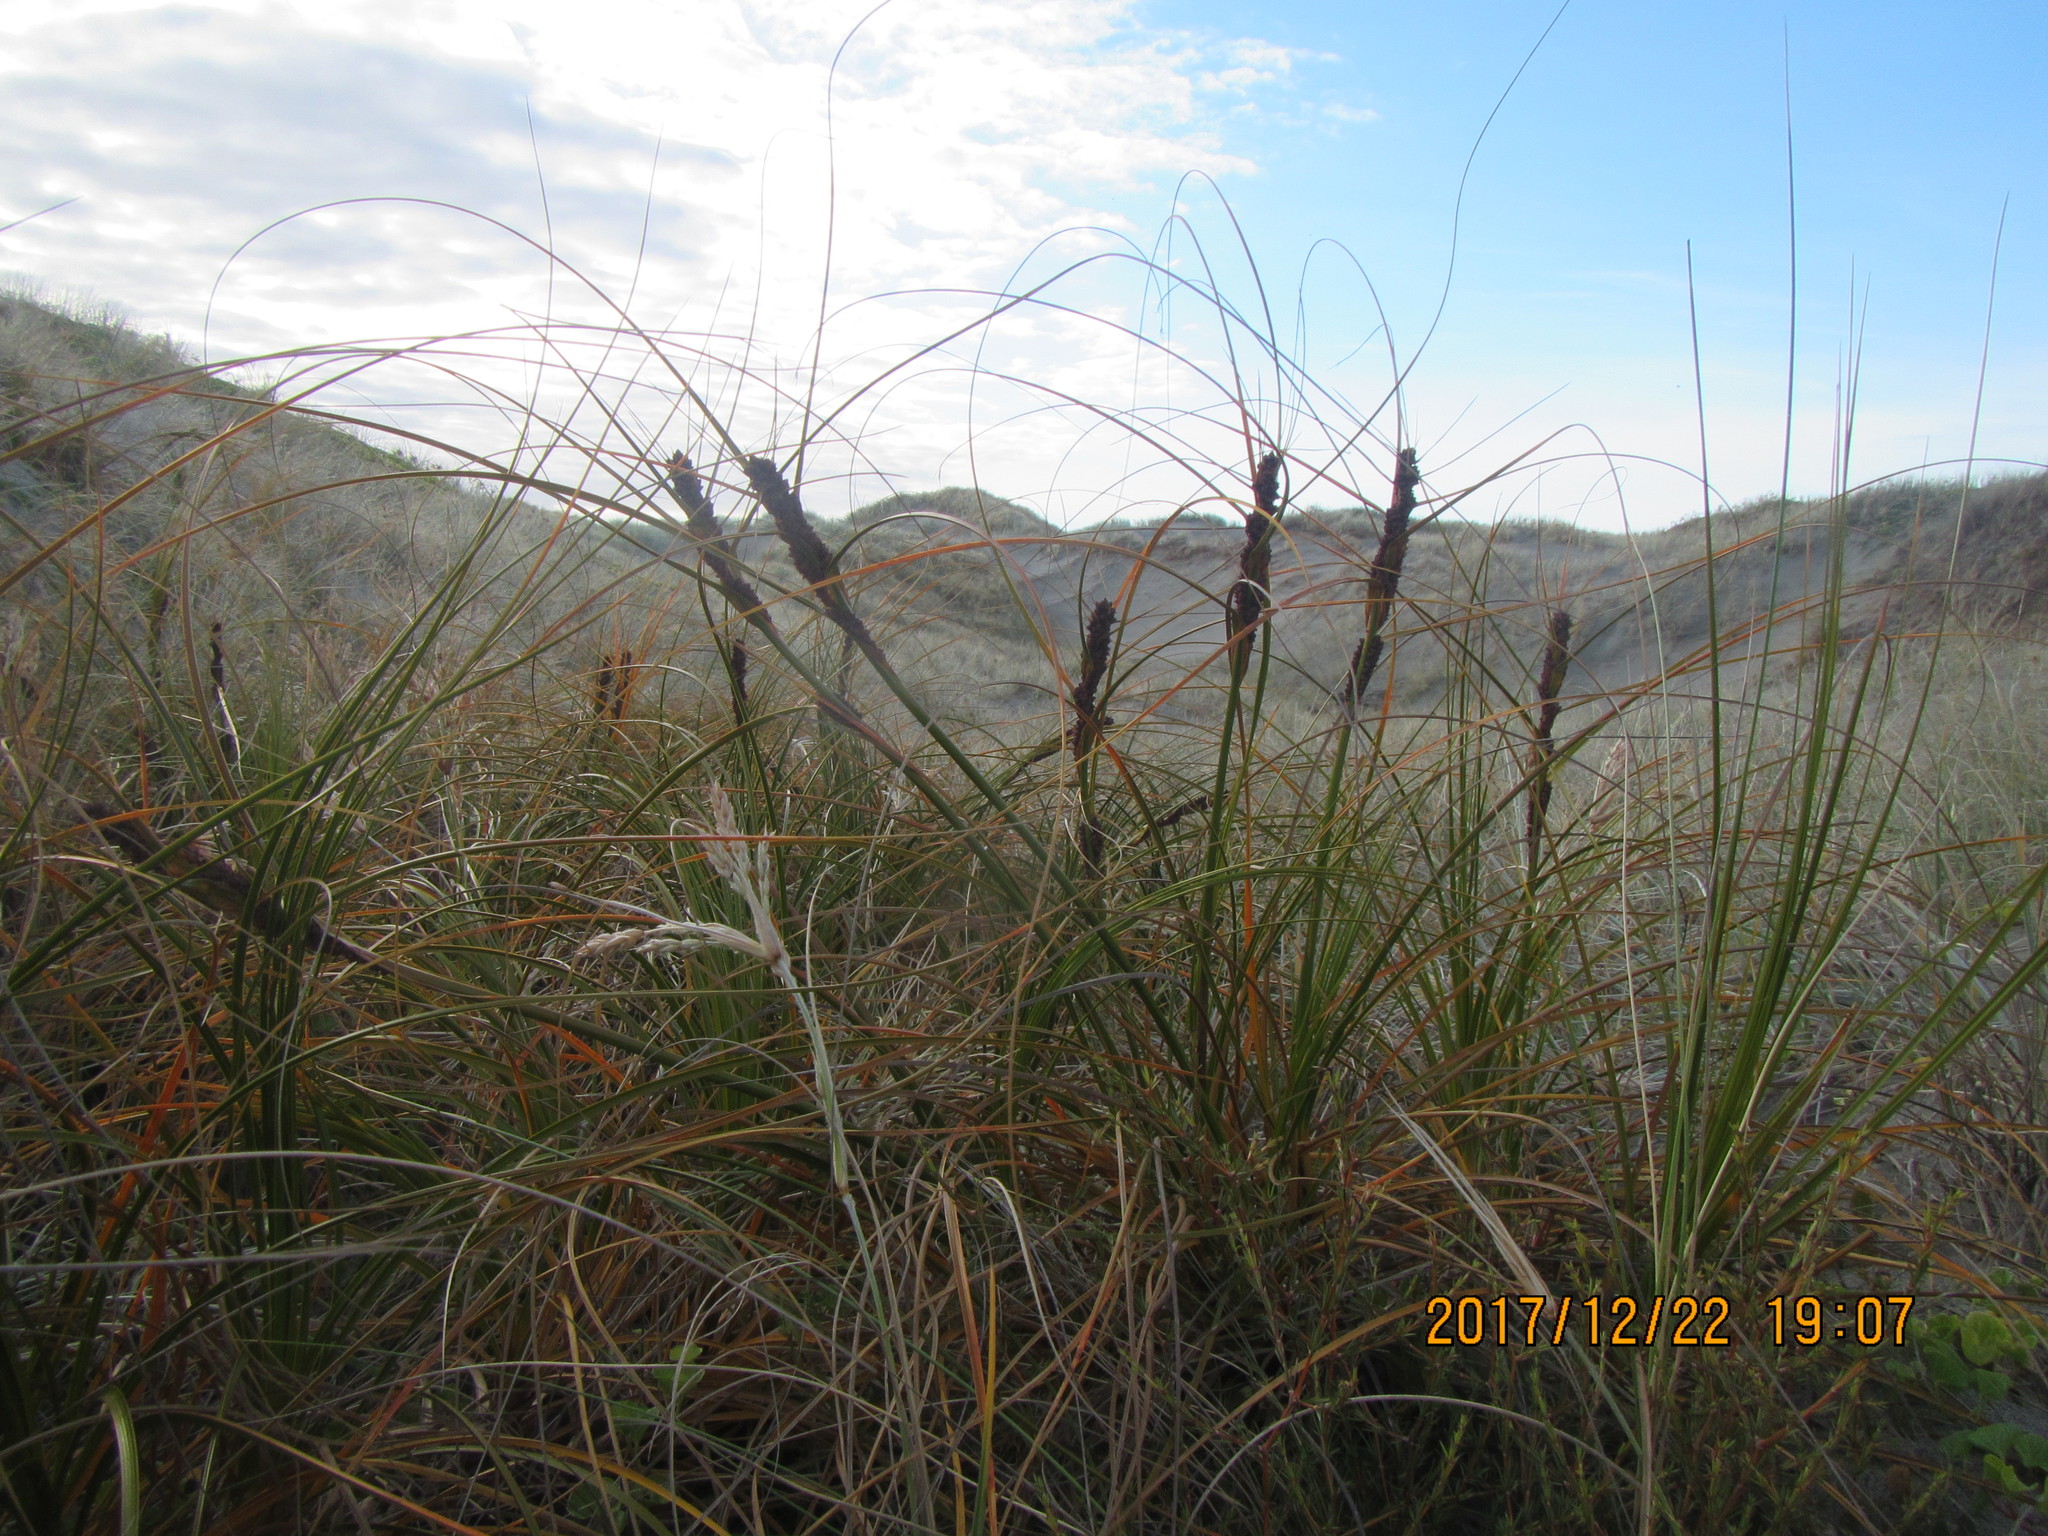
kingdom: Plantae
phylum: Tracheophyta
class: Liliopsida
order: Poales
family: Cyperaceae
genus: Ficinia
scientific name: Ficinia spiralis
